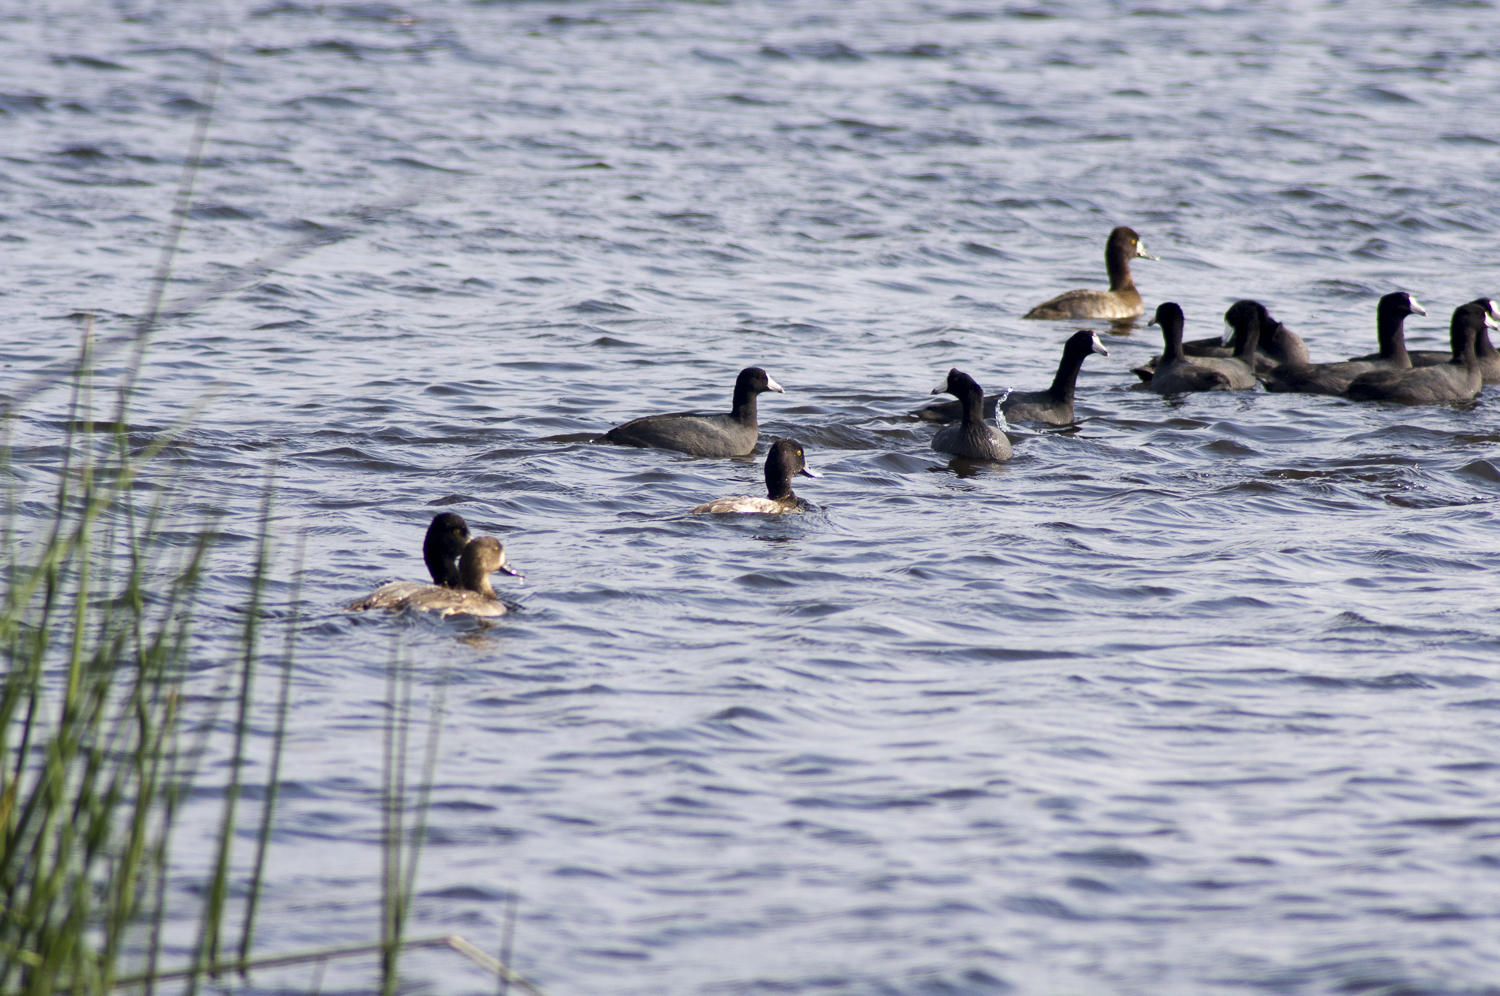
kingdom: Animalia
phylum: Chordata
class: Aves
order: Anseriformes
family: Anatidae
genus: Aythya
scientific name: Aythya affinis
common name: Lesser scaup
